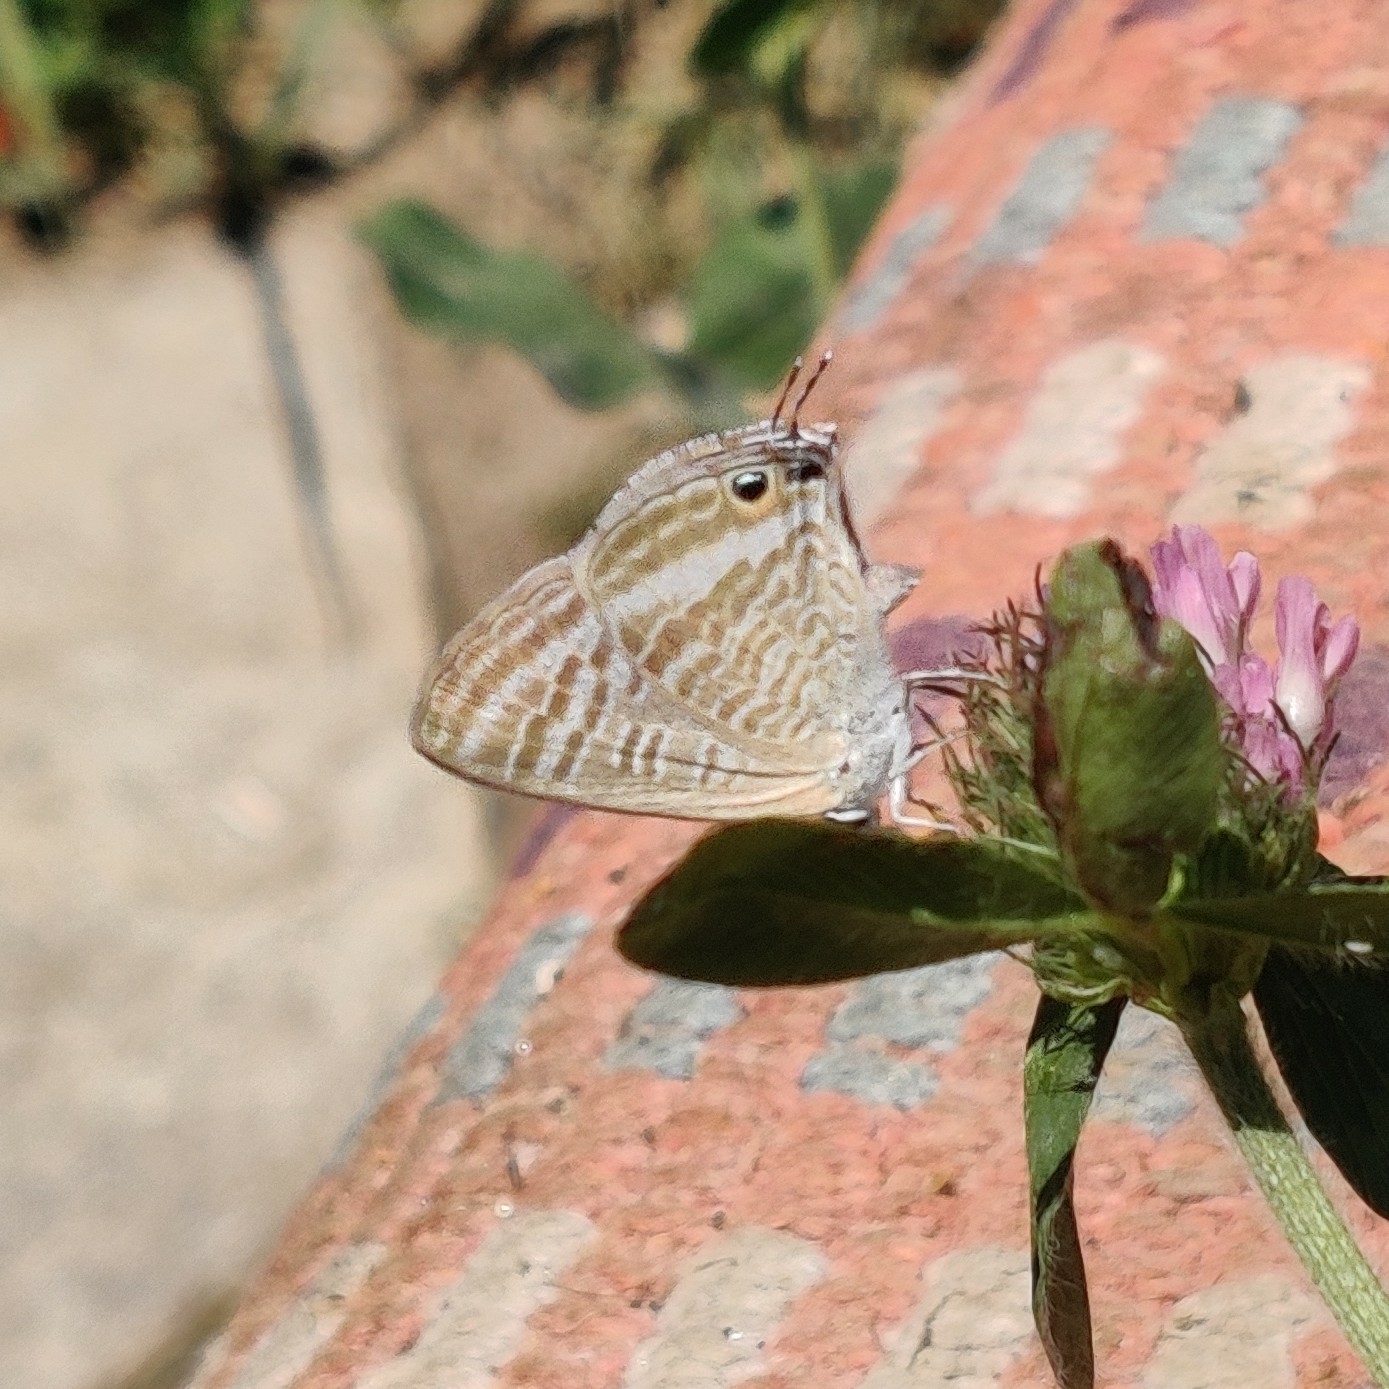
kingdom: Animalia
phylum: Arthropoda
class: Insecta
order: Lepidoptera
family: Lycaenidae
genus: Lampides
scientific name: Lampides boeticus
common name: Long-tailed blue
